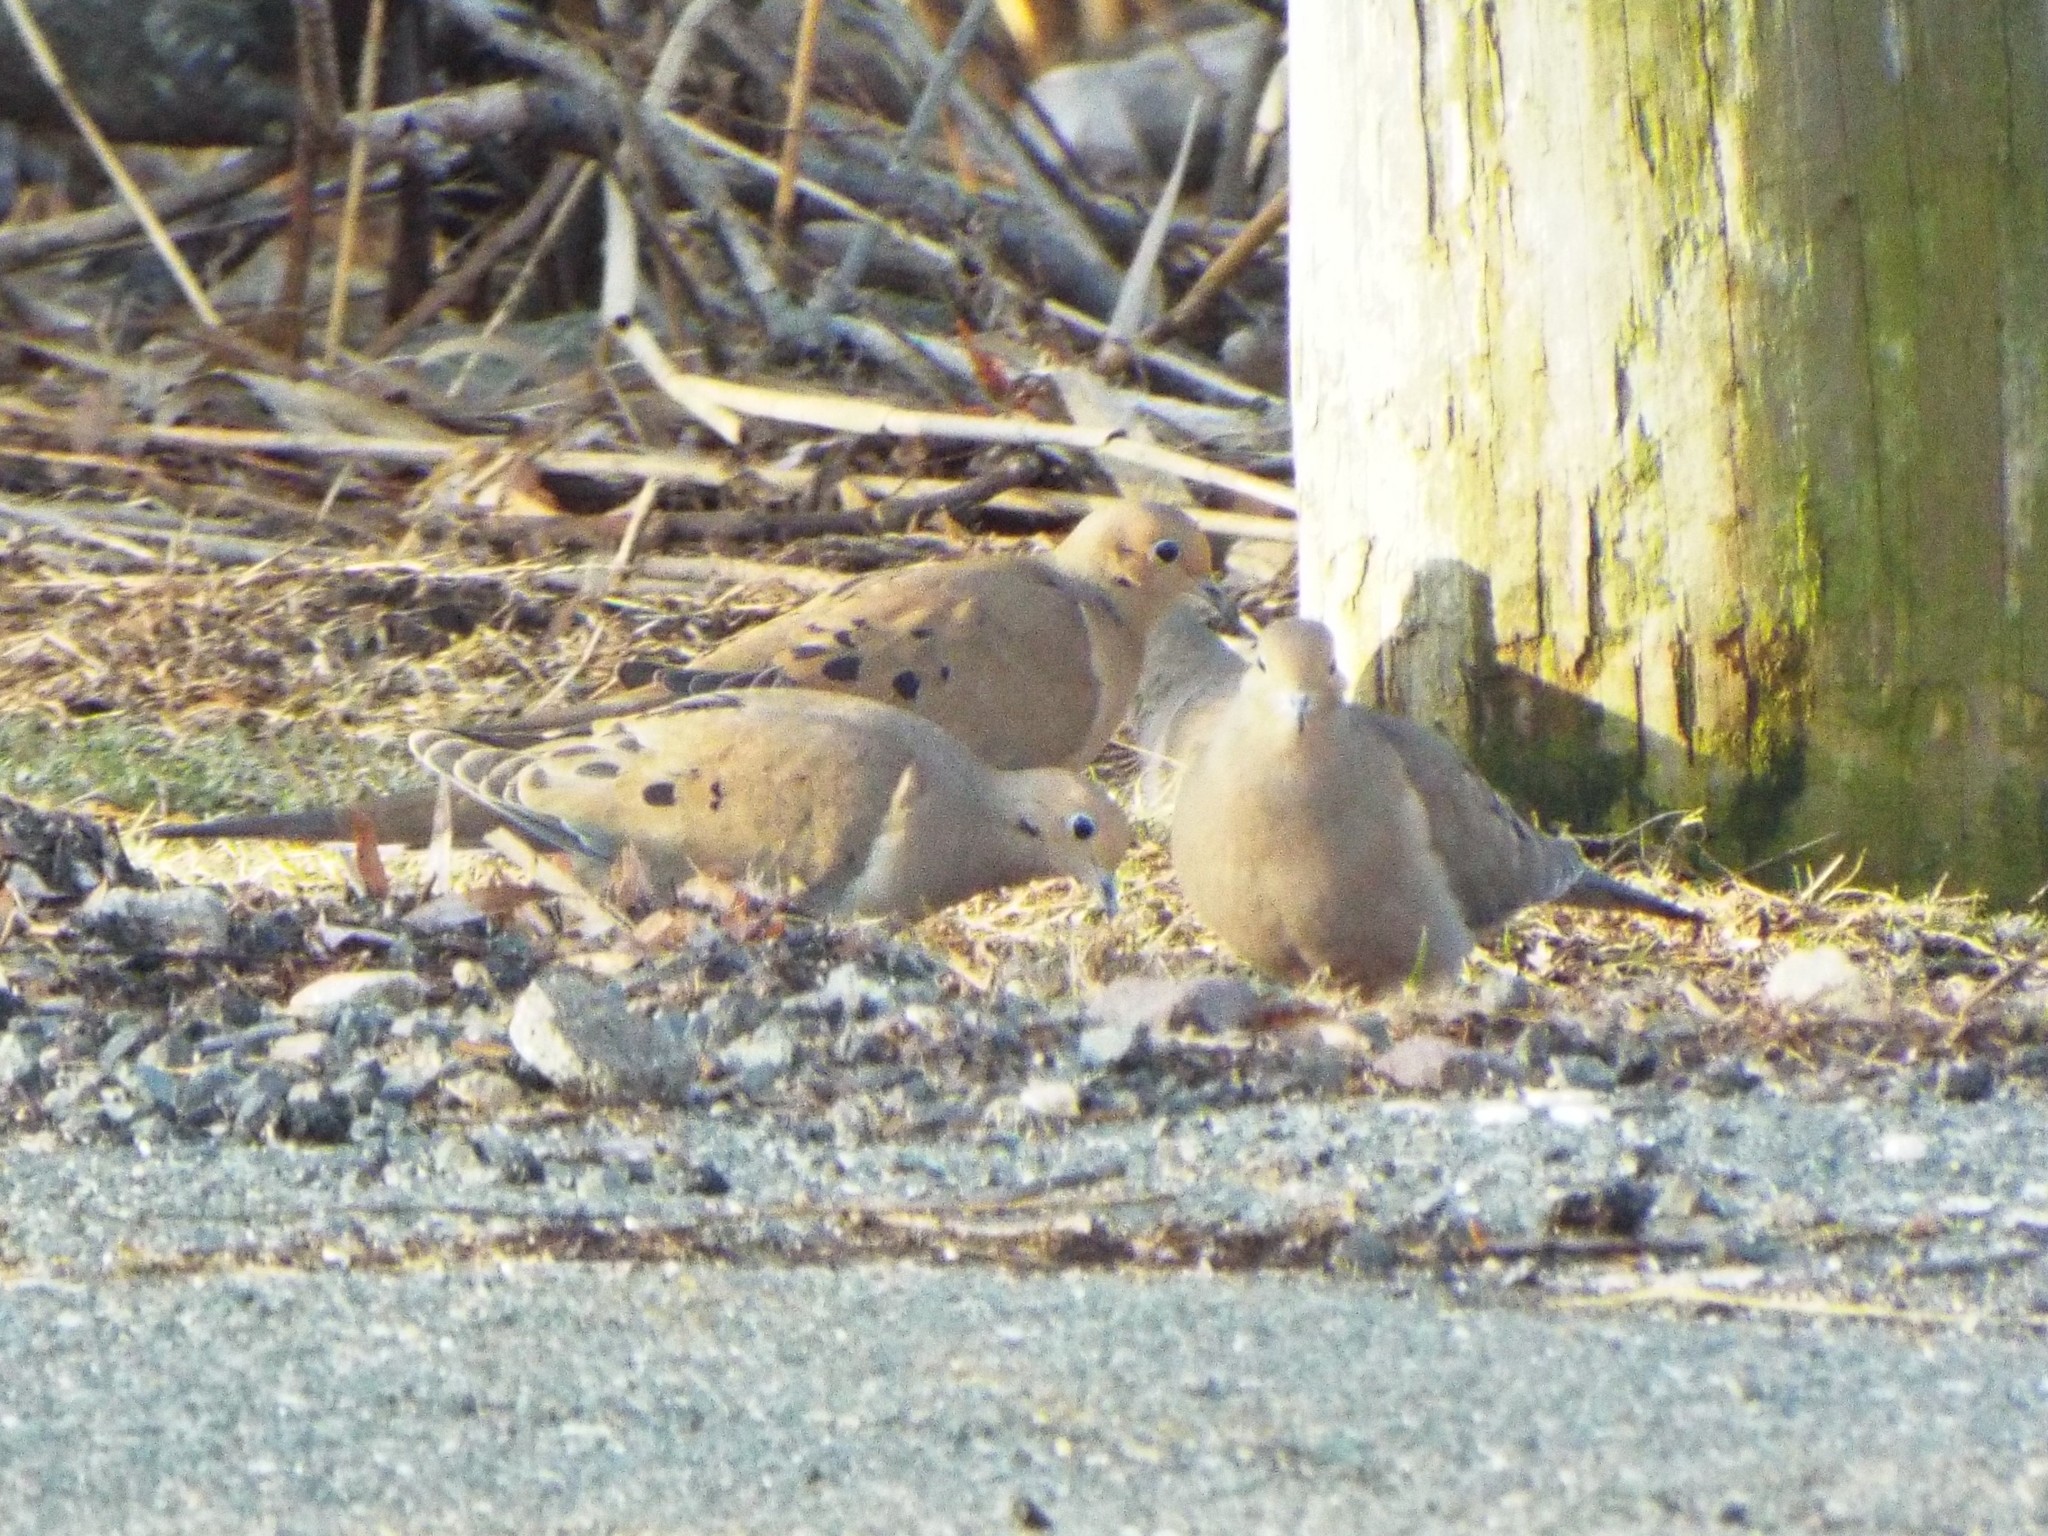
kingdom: Animalia
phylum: Chordata
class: Aves
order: Columbiformes
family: Columbidae
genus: Zenaida
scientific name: Zenaida macroura
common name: Mourning dove
